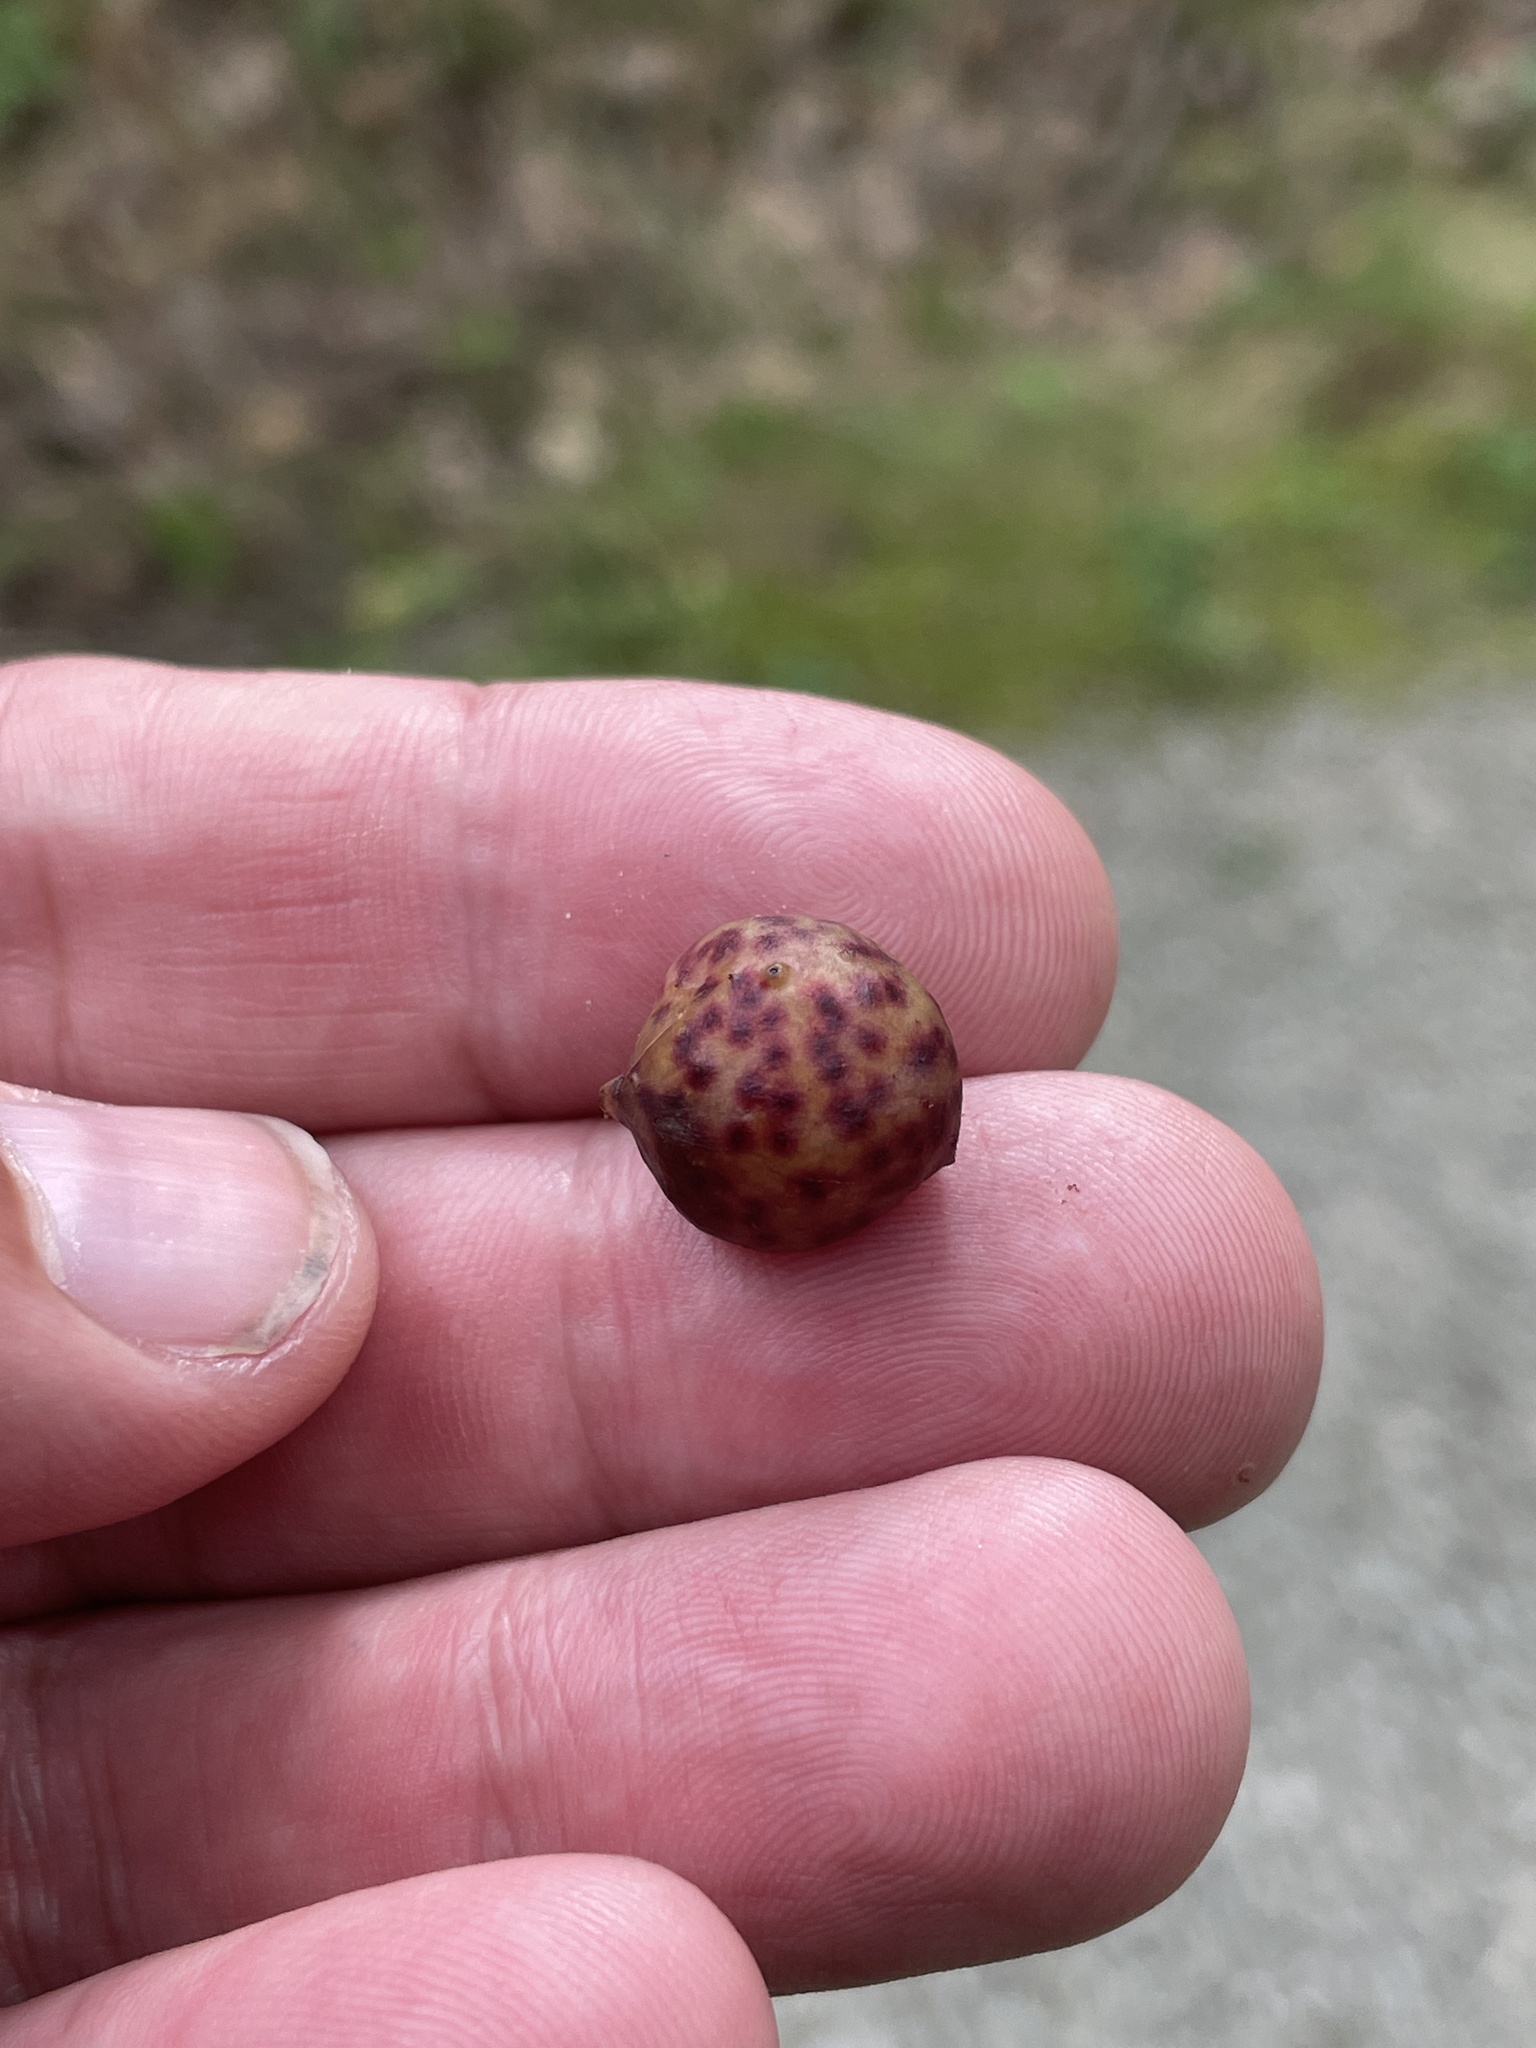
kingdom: Animalia
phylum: Arthropoda
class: Insecta
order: Hymenoptera
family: Cynipidae
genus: Amphibolips
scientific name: Amphibolips
